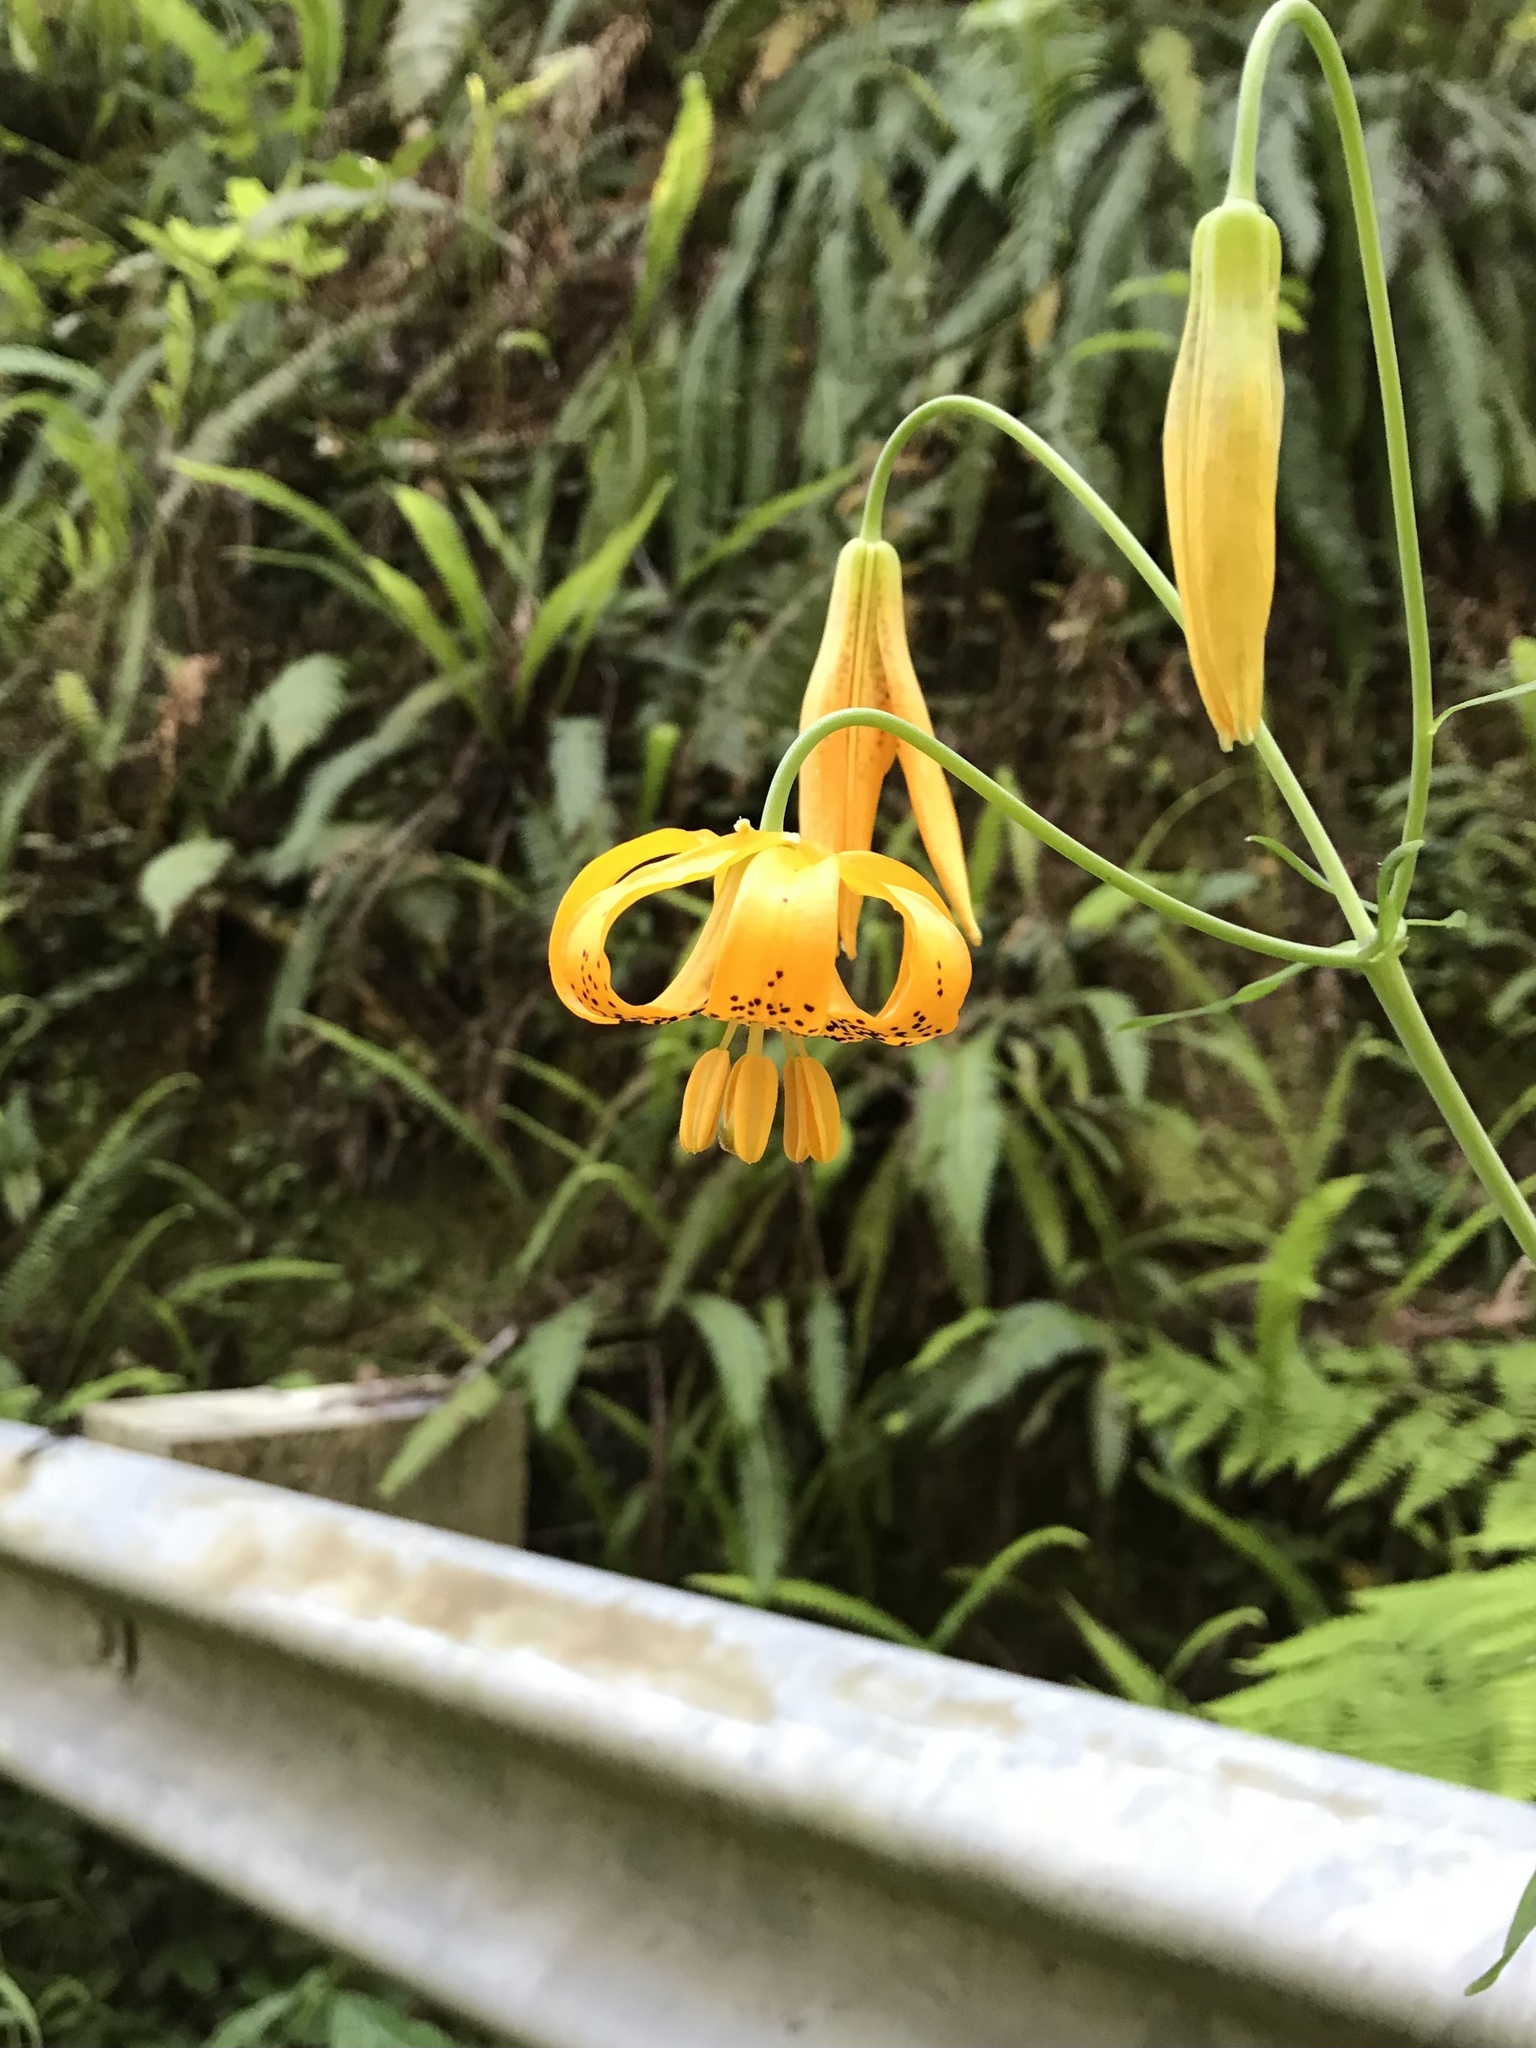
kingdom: Plantae
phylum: Tracheophyta
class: Liliopsida
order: Liliales
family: Liliaceae
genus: Lilium
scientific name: Lilium columbianum
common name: Columbia lily
